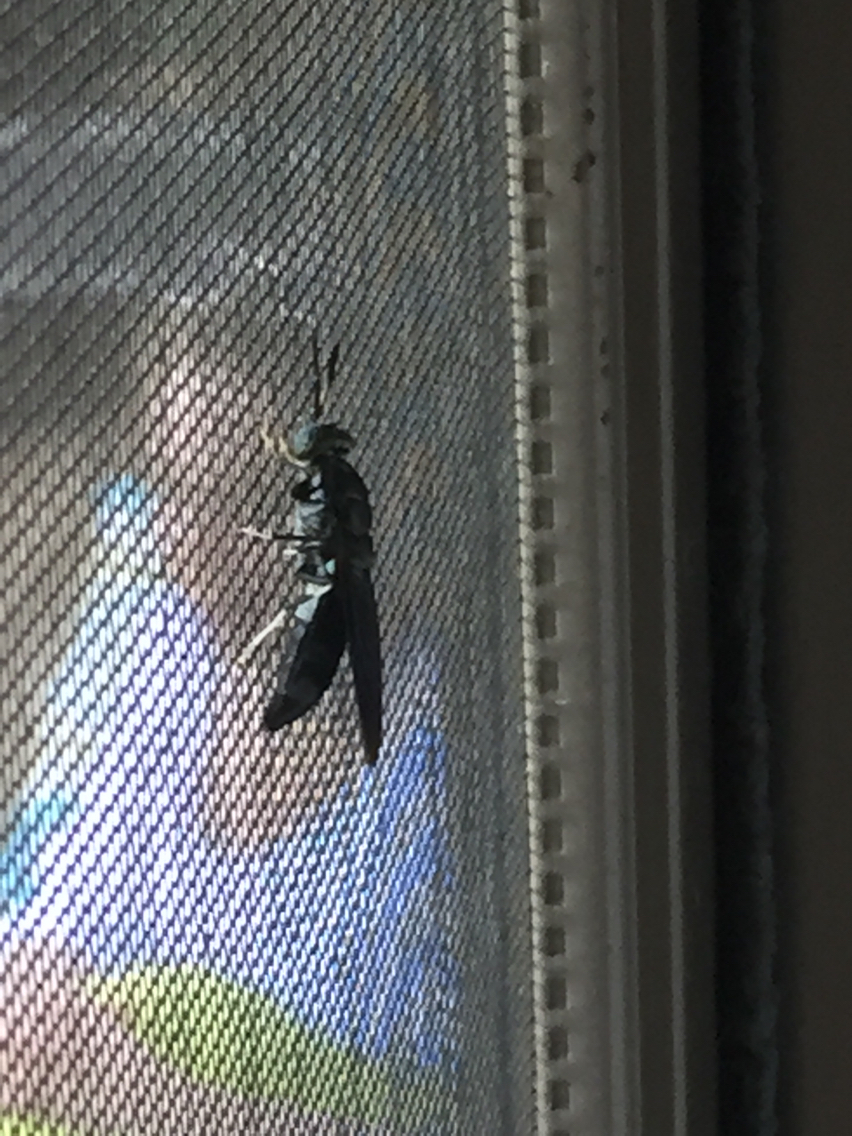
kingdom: Animalia
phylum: Arthropoda
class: Insecta
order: Diptera
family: Stratiomyidae
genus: Hermetia
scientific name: Hermetia illucens
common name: Black soldier fly
